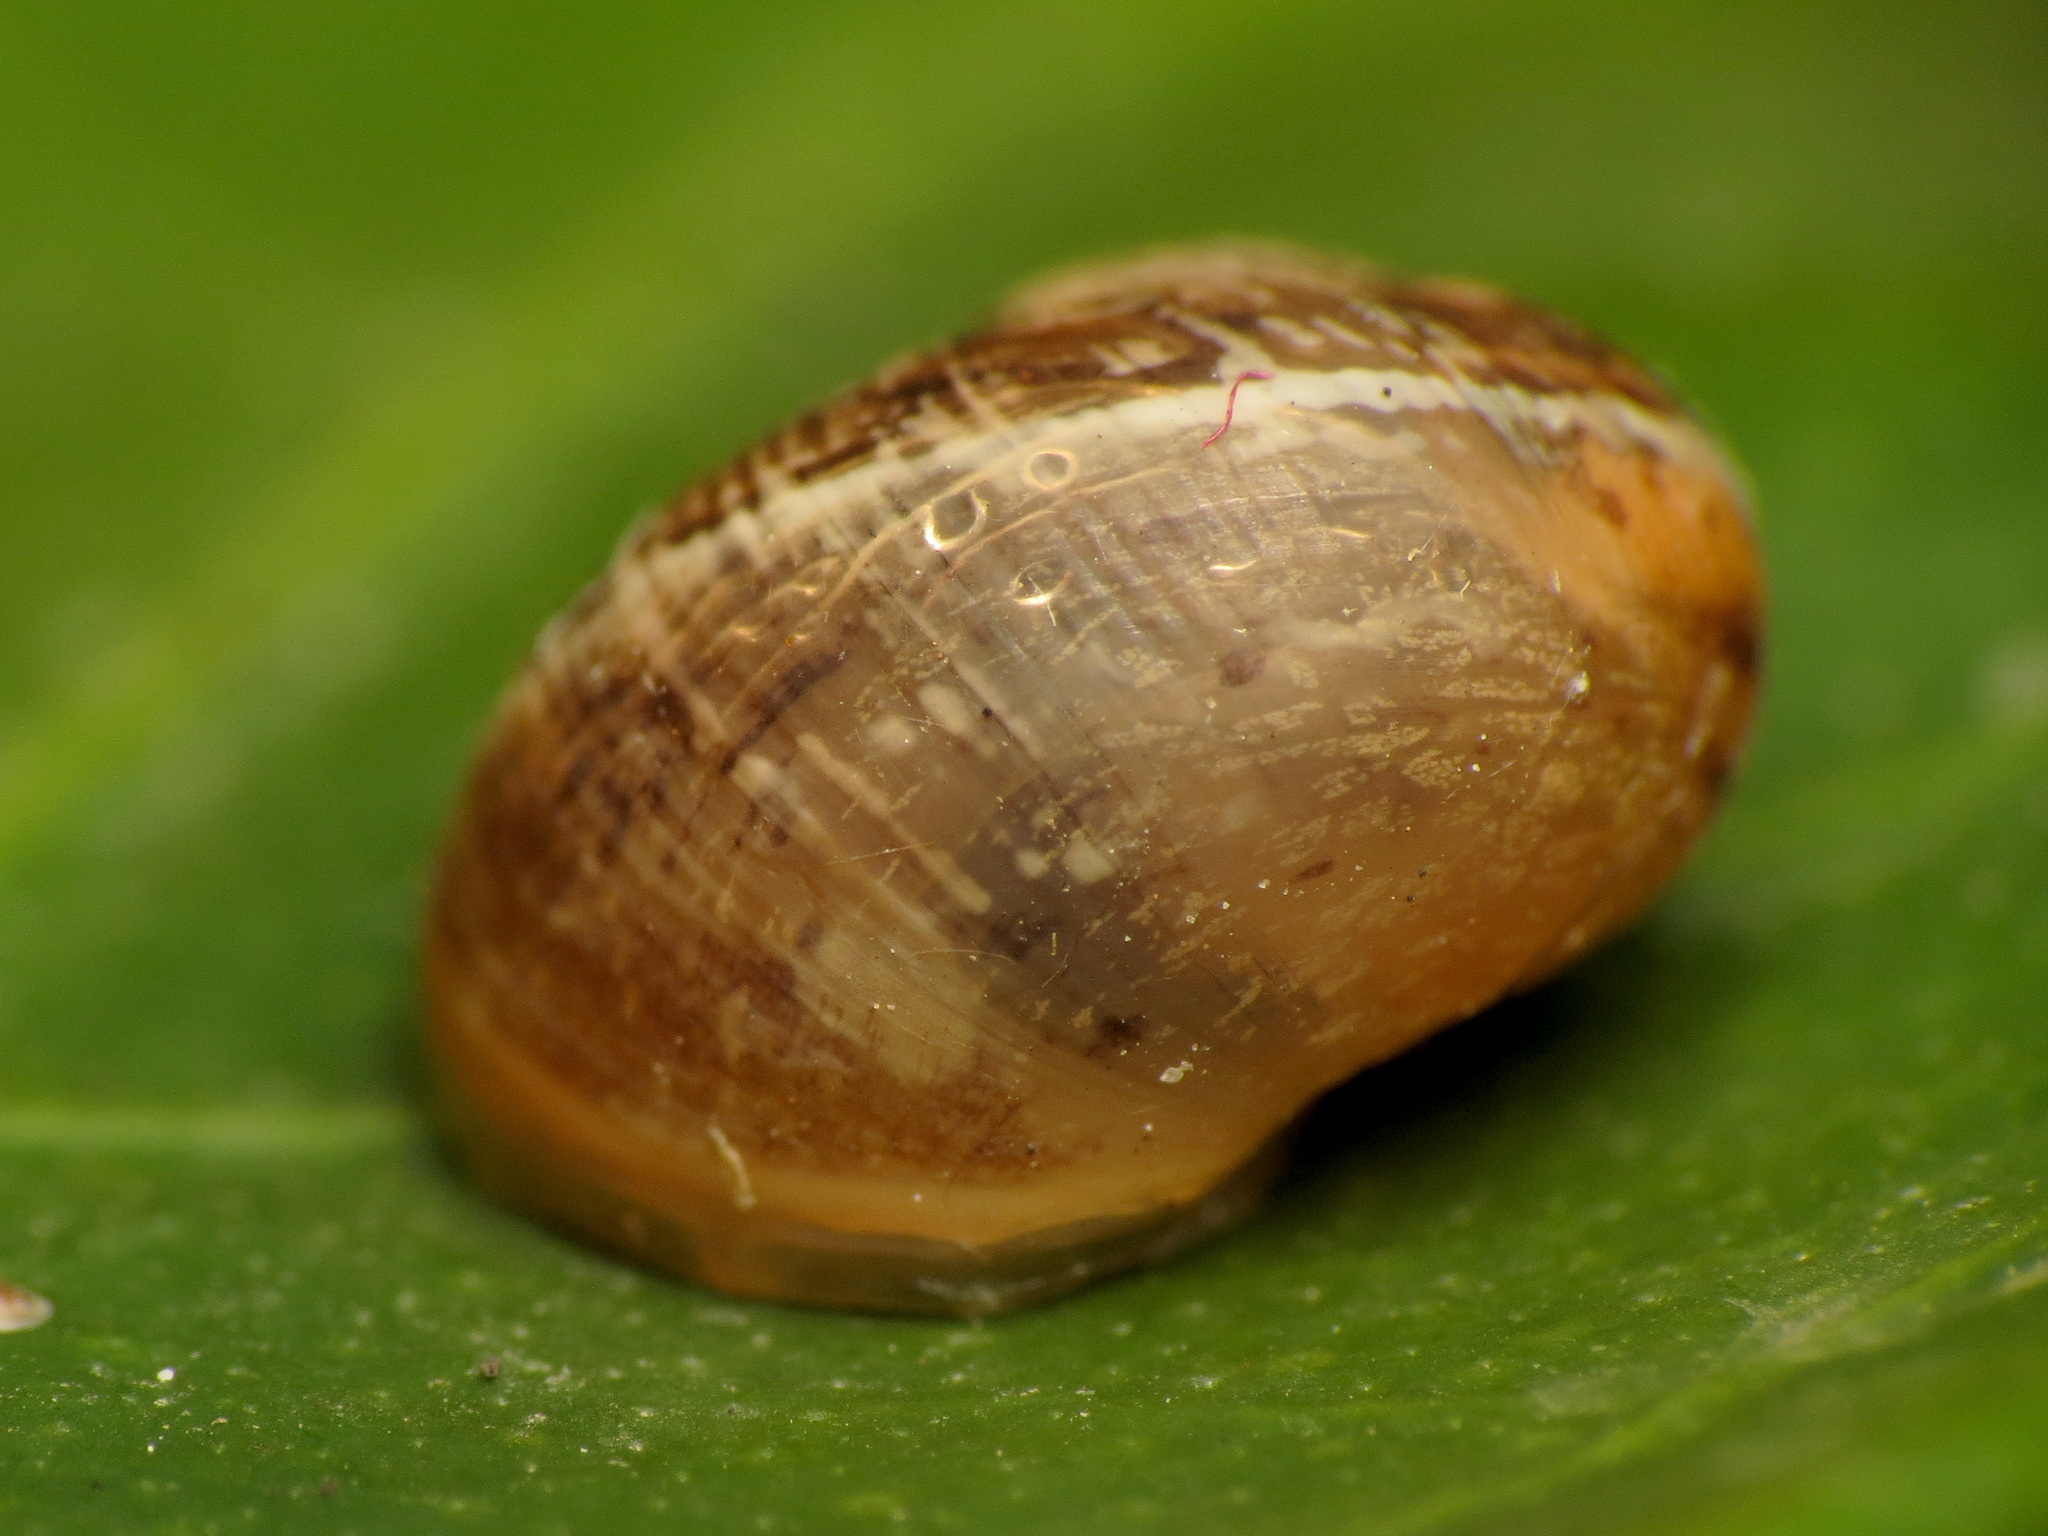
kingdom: Animalia
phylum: Mollusca
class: Gastropoda
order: Stylommatophora
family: Helicidae
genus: Cornu
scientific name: Cornu aspersum
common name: Brown garden snail
